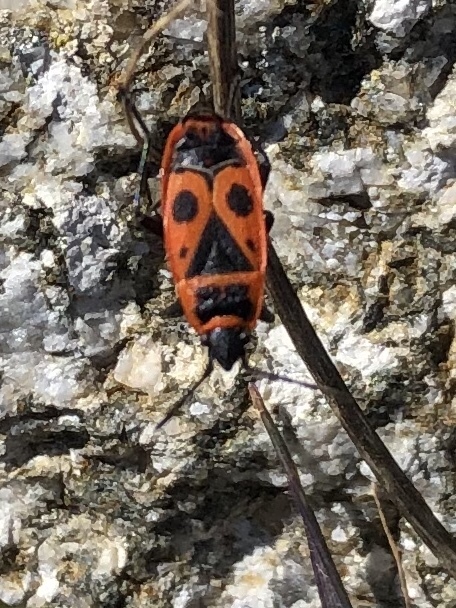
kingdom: Animalia
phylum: Arthropoda
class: Insecta
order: Hemiptera
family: Pyrrhocoridae
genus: Pyrrhocoris
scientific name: Pyrrhocoris apterus
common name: Firebug
